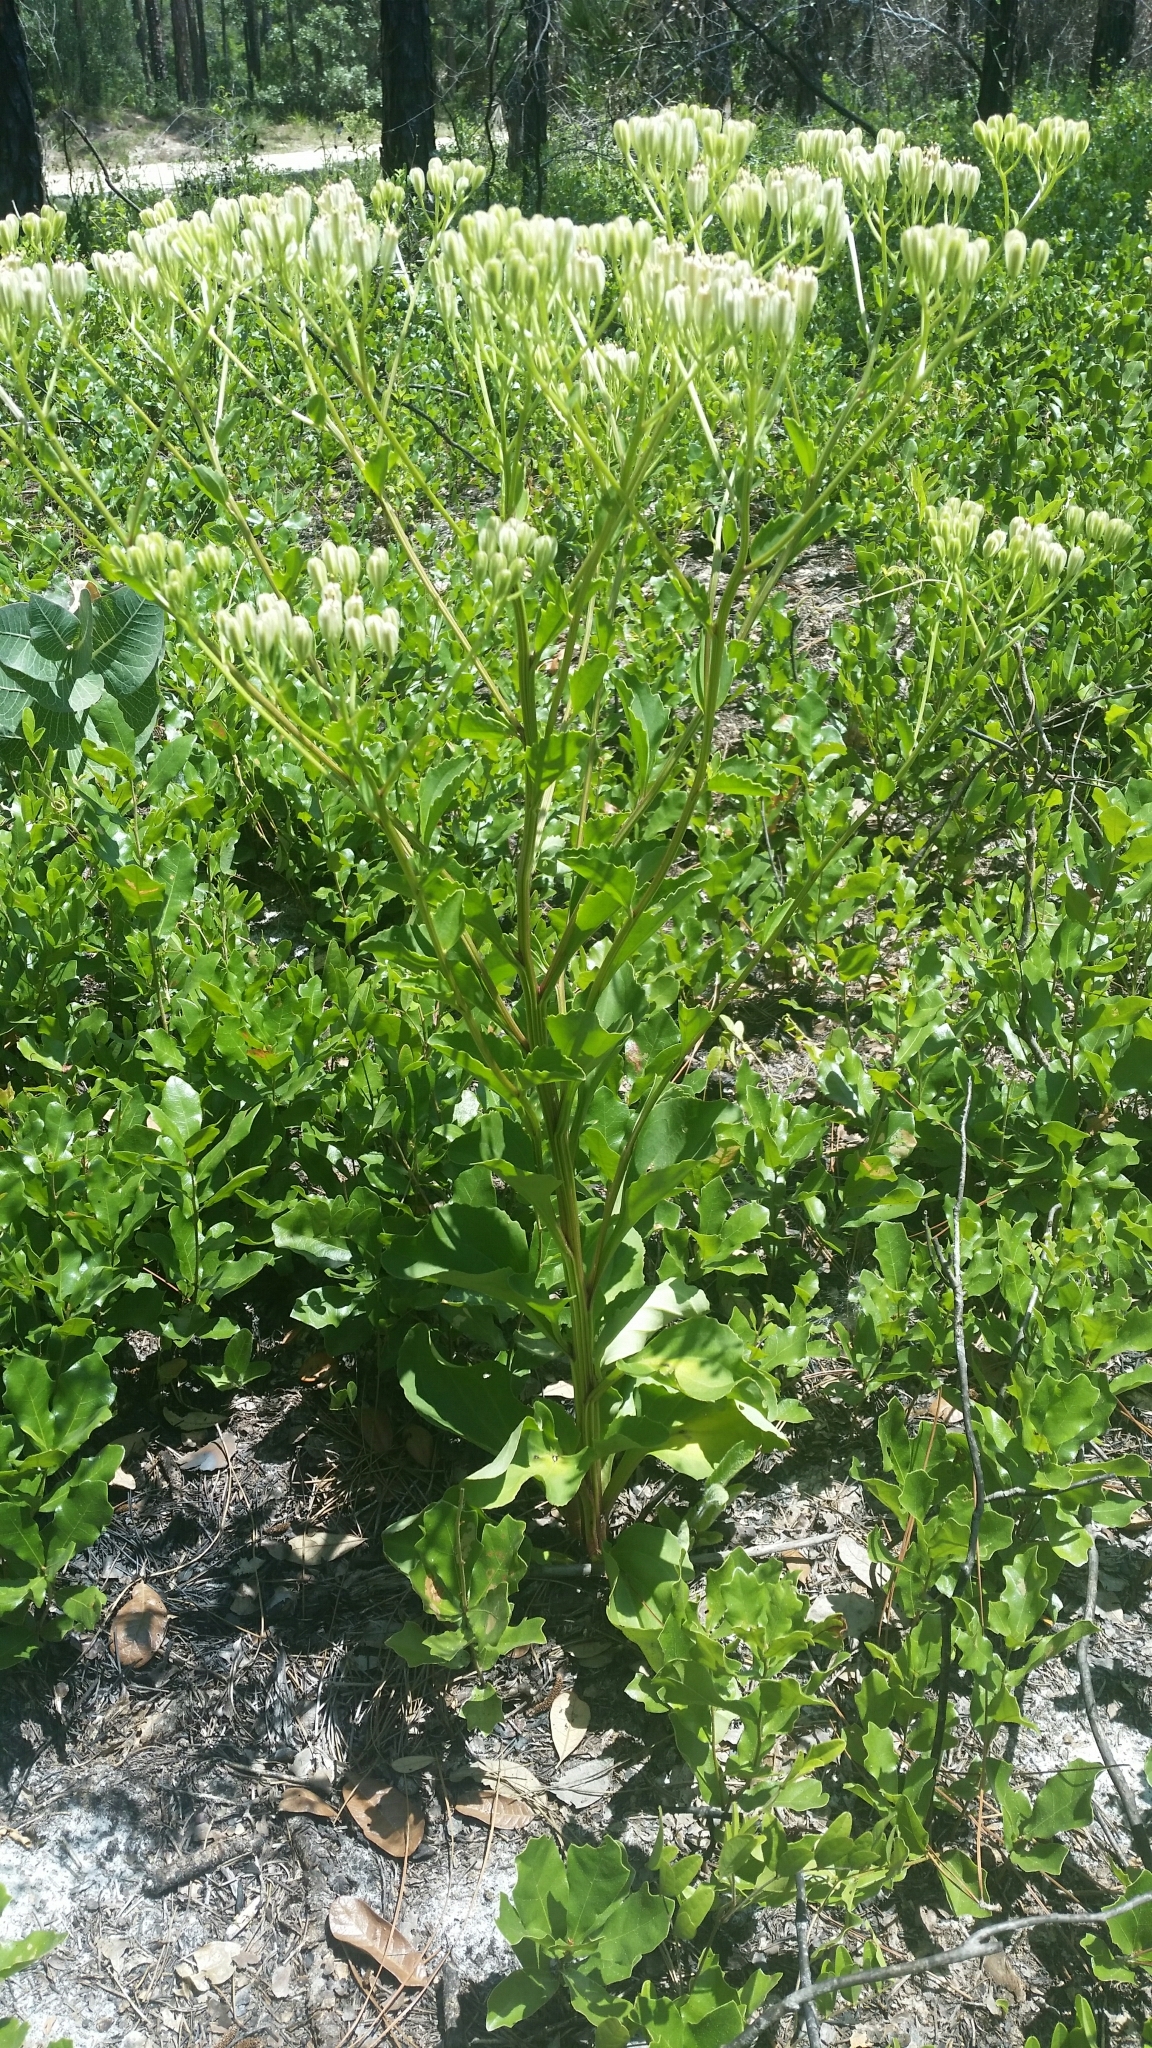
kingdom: Plantae
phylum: Tracheophyta
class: Magnoliopsida
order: Asterales
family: Asteraceae
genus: Arnoglossum
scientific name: Arnoglossum floridanum
